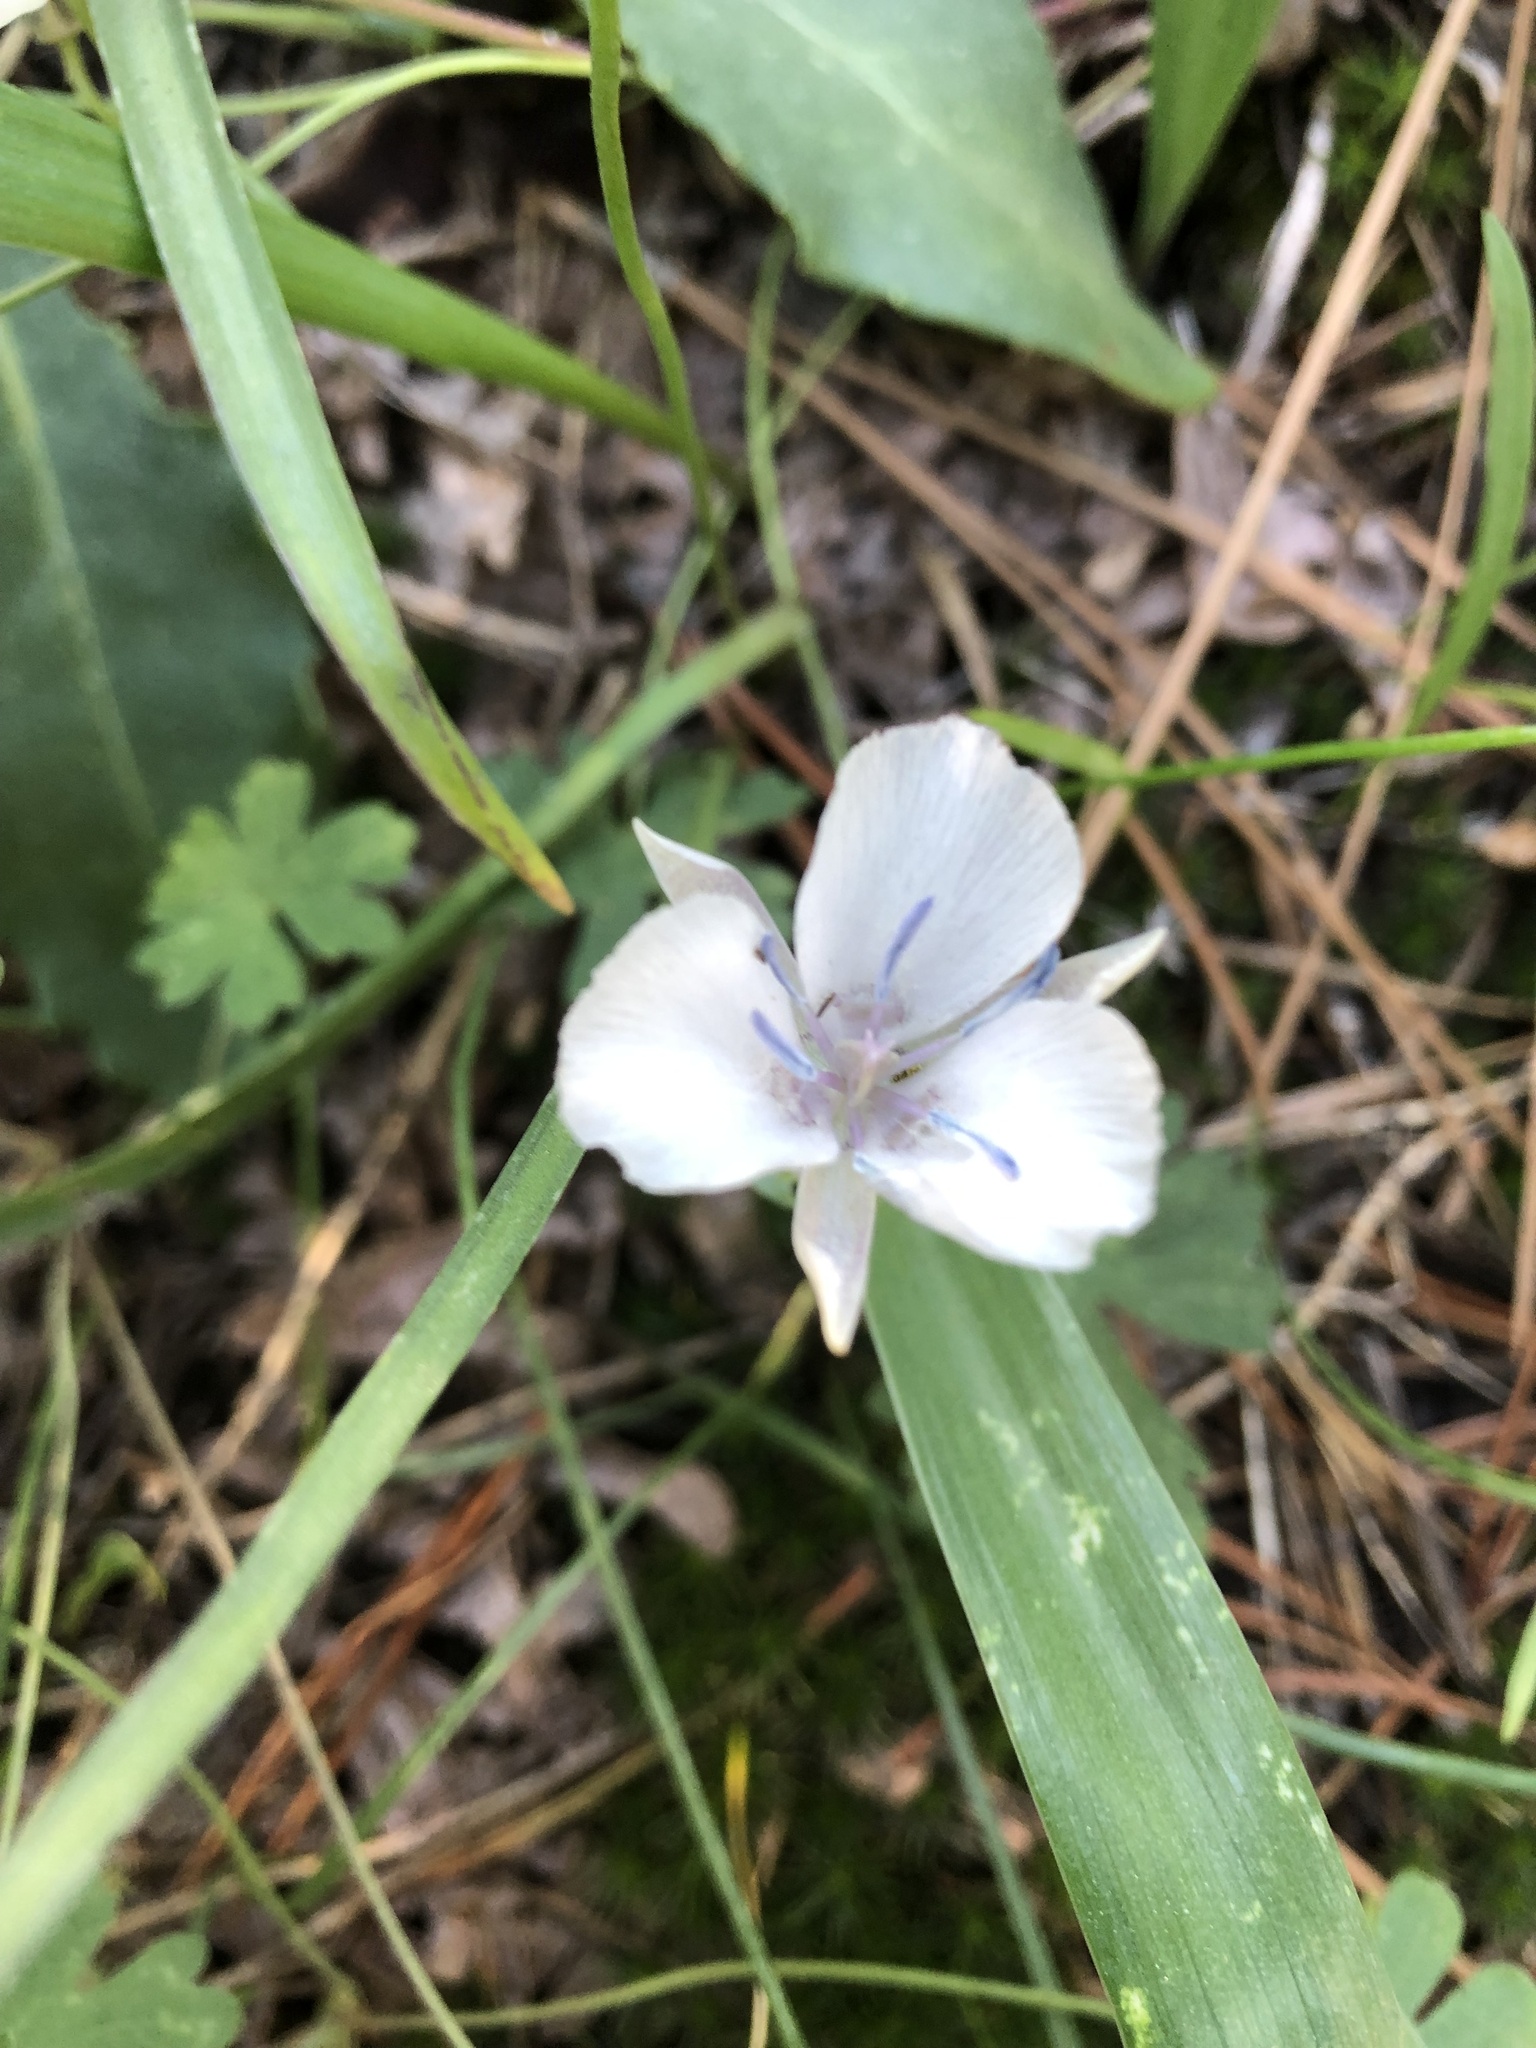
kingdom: Plantae
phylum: Tracheophyta
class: Liliopsida
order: Liliales
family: Liliaceae
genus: Calochortus
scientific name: Calochortus minimus
